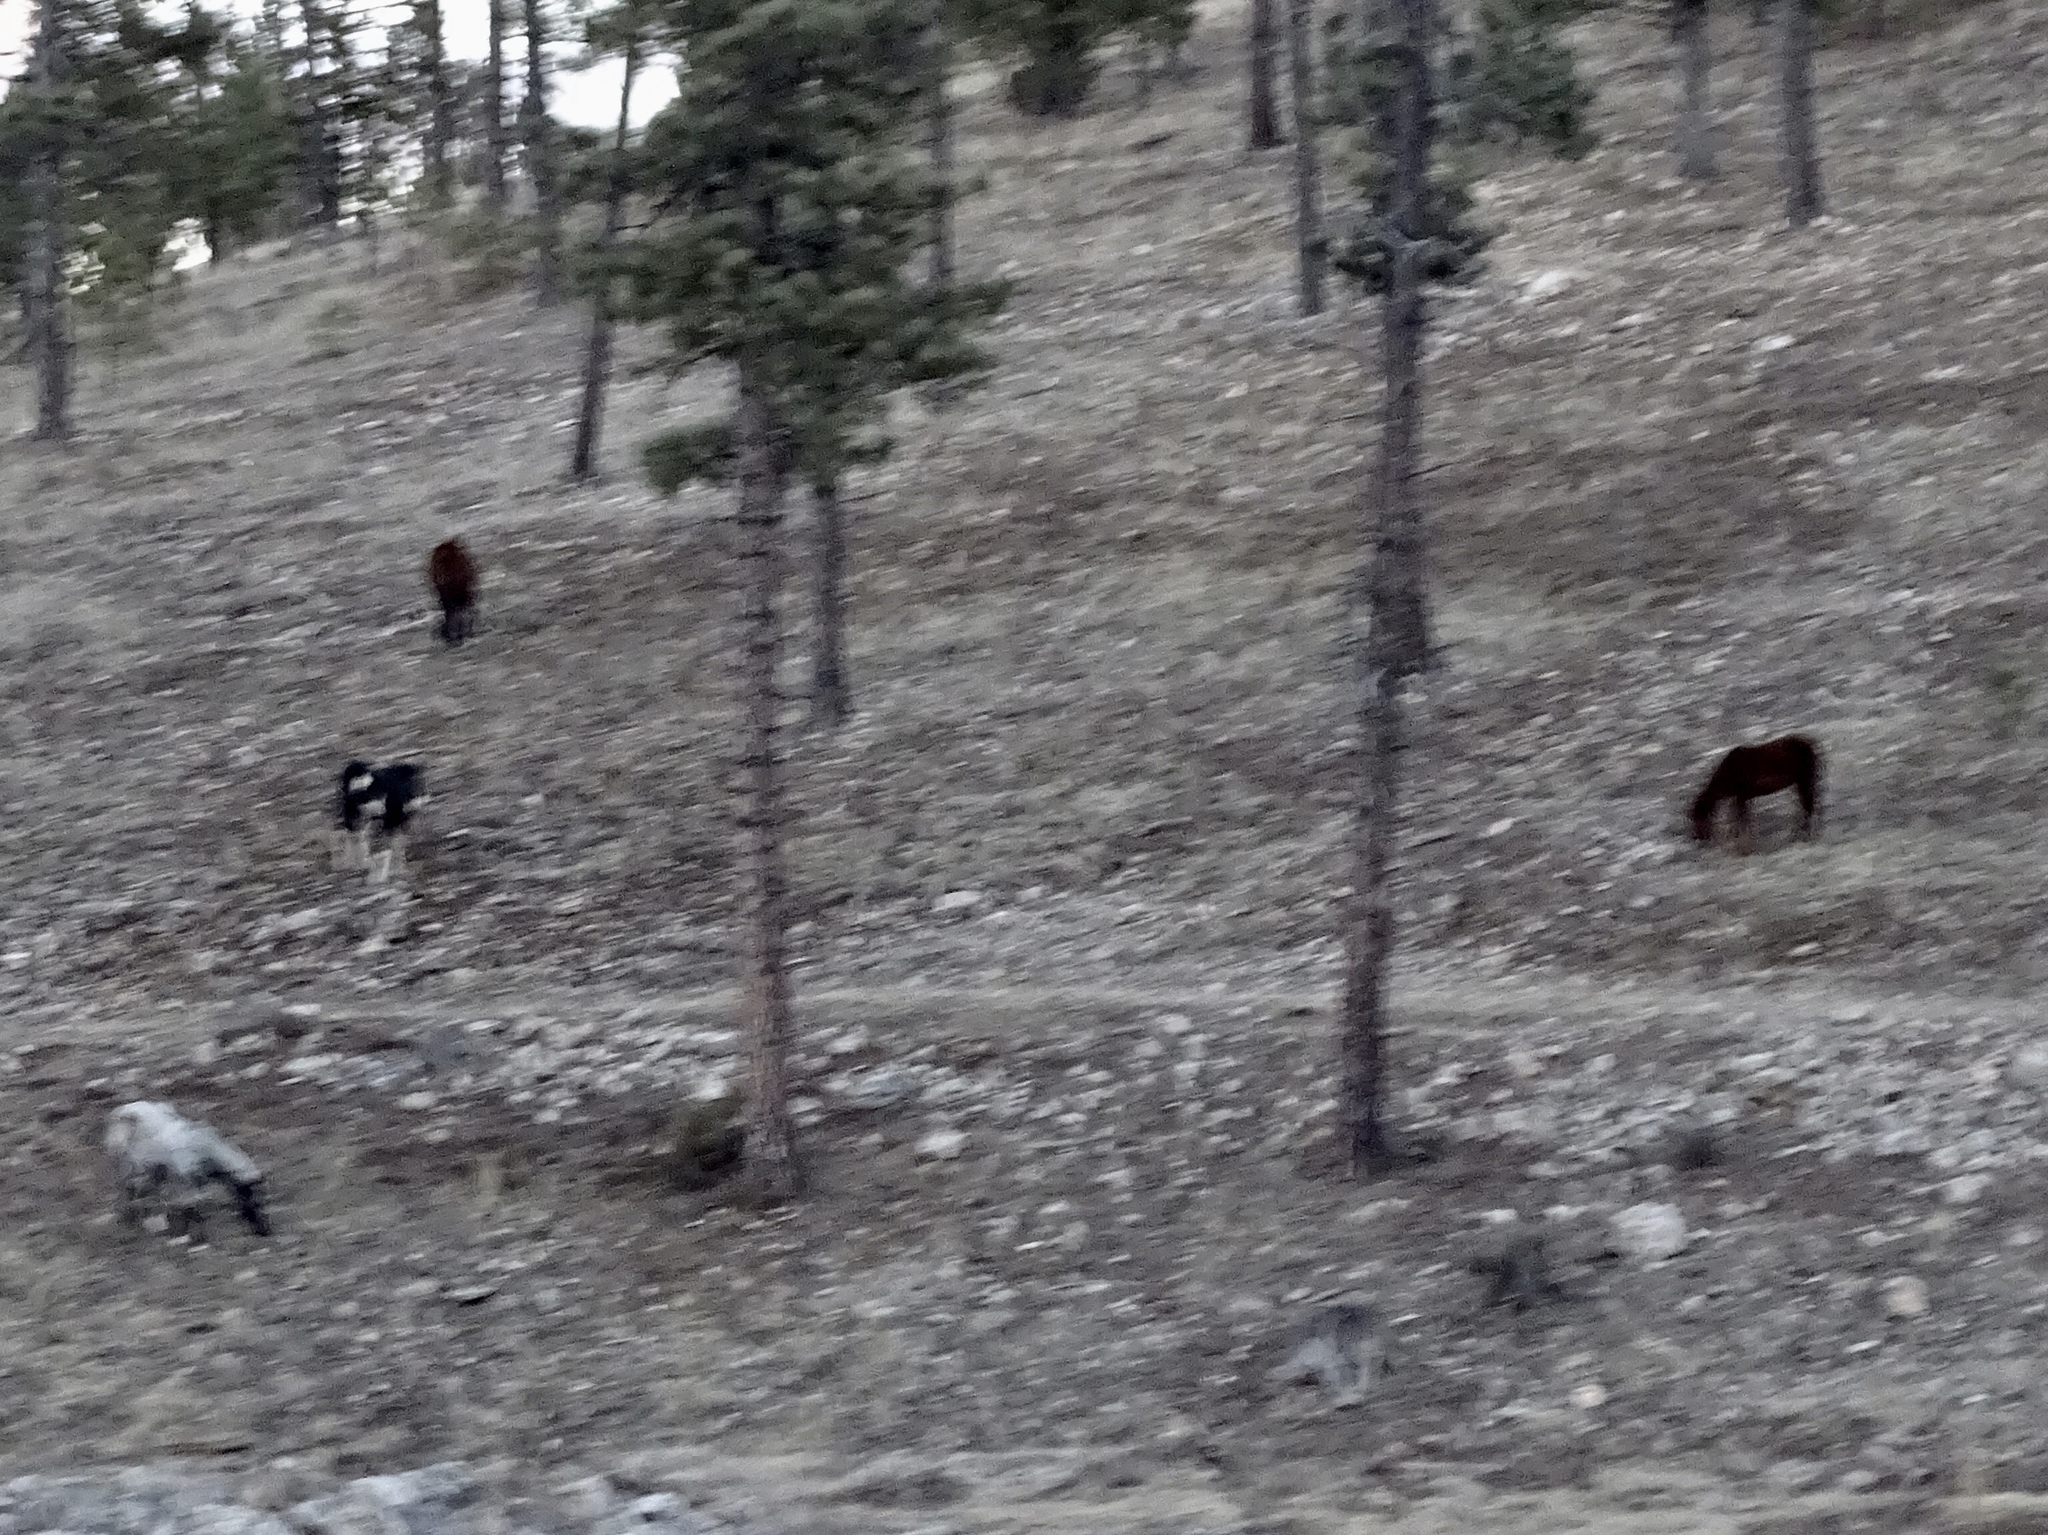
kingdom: Animalia
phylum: Chordata
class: Mammalia
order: Perissodactyla
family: Equidae
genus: Equus
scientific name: Equus caballus
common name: Horse
